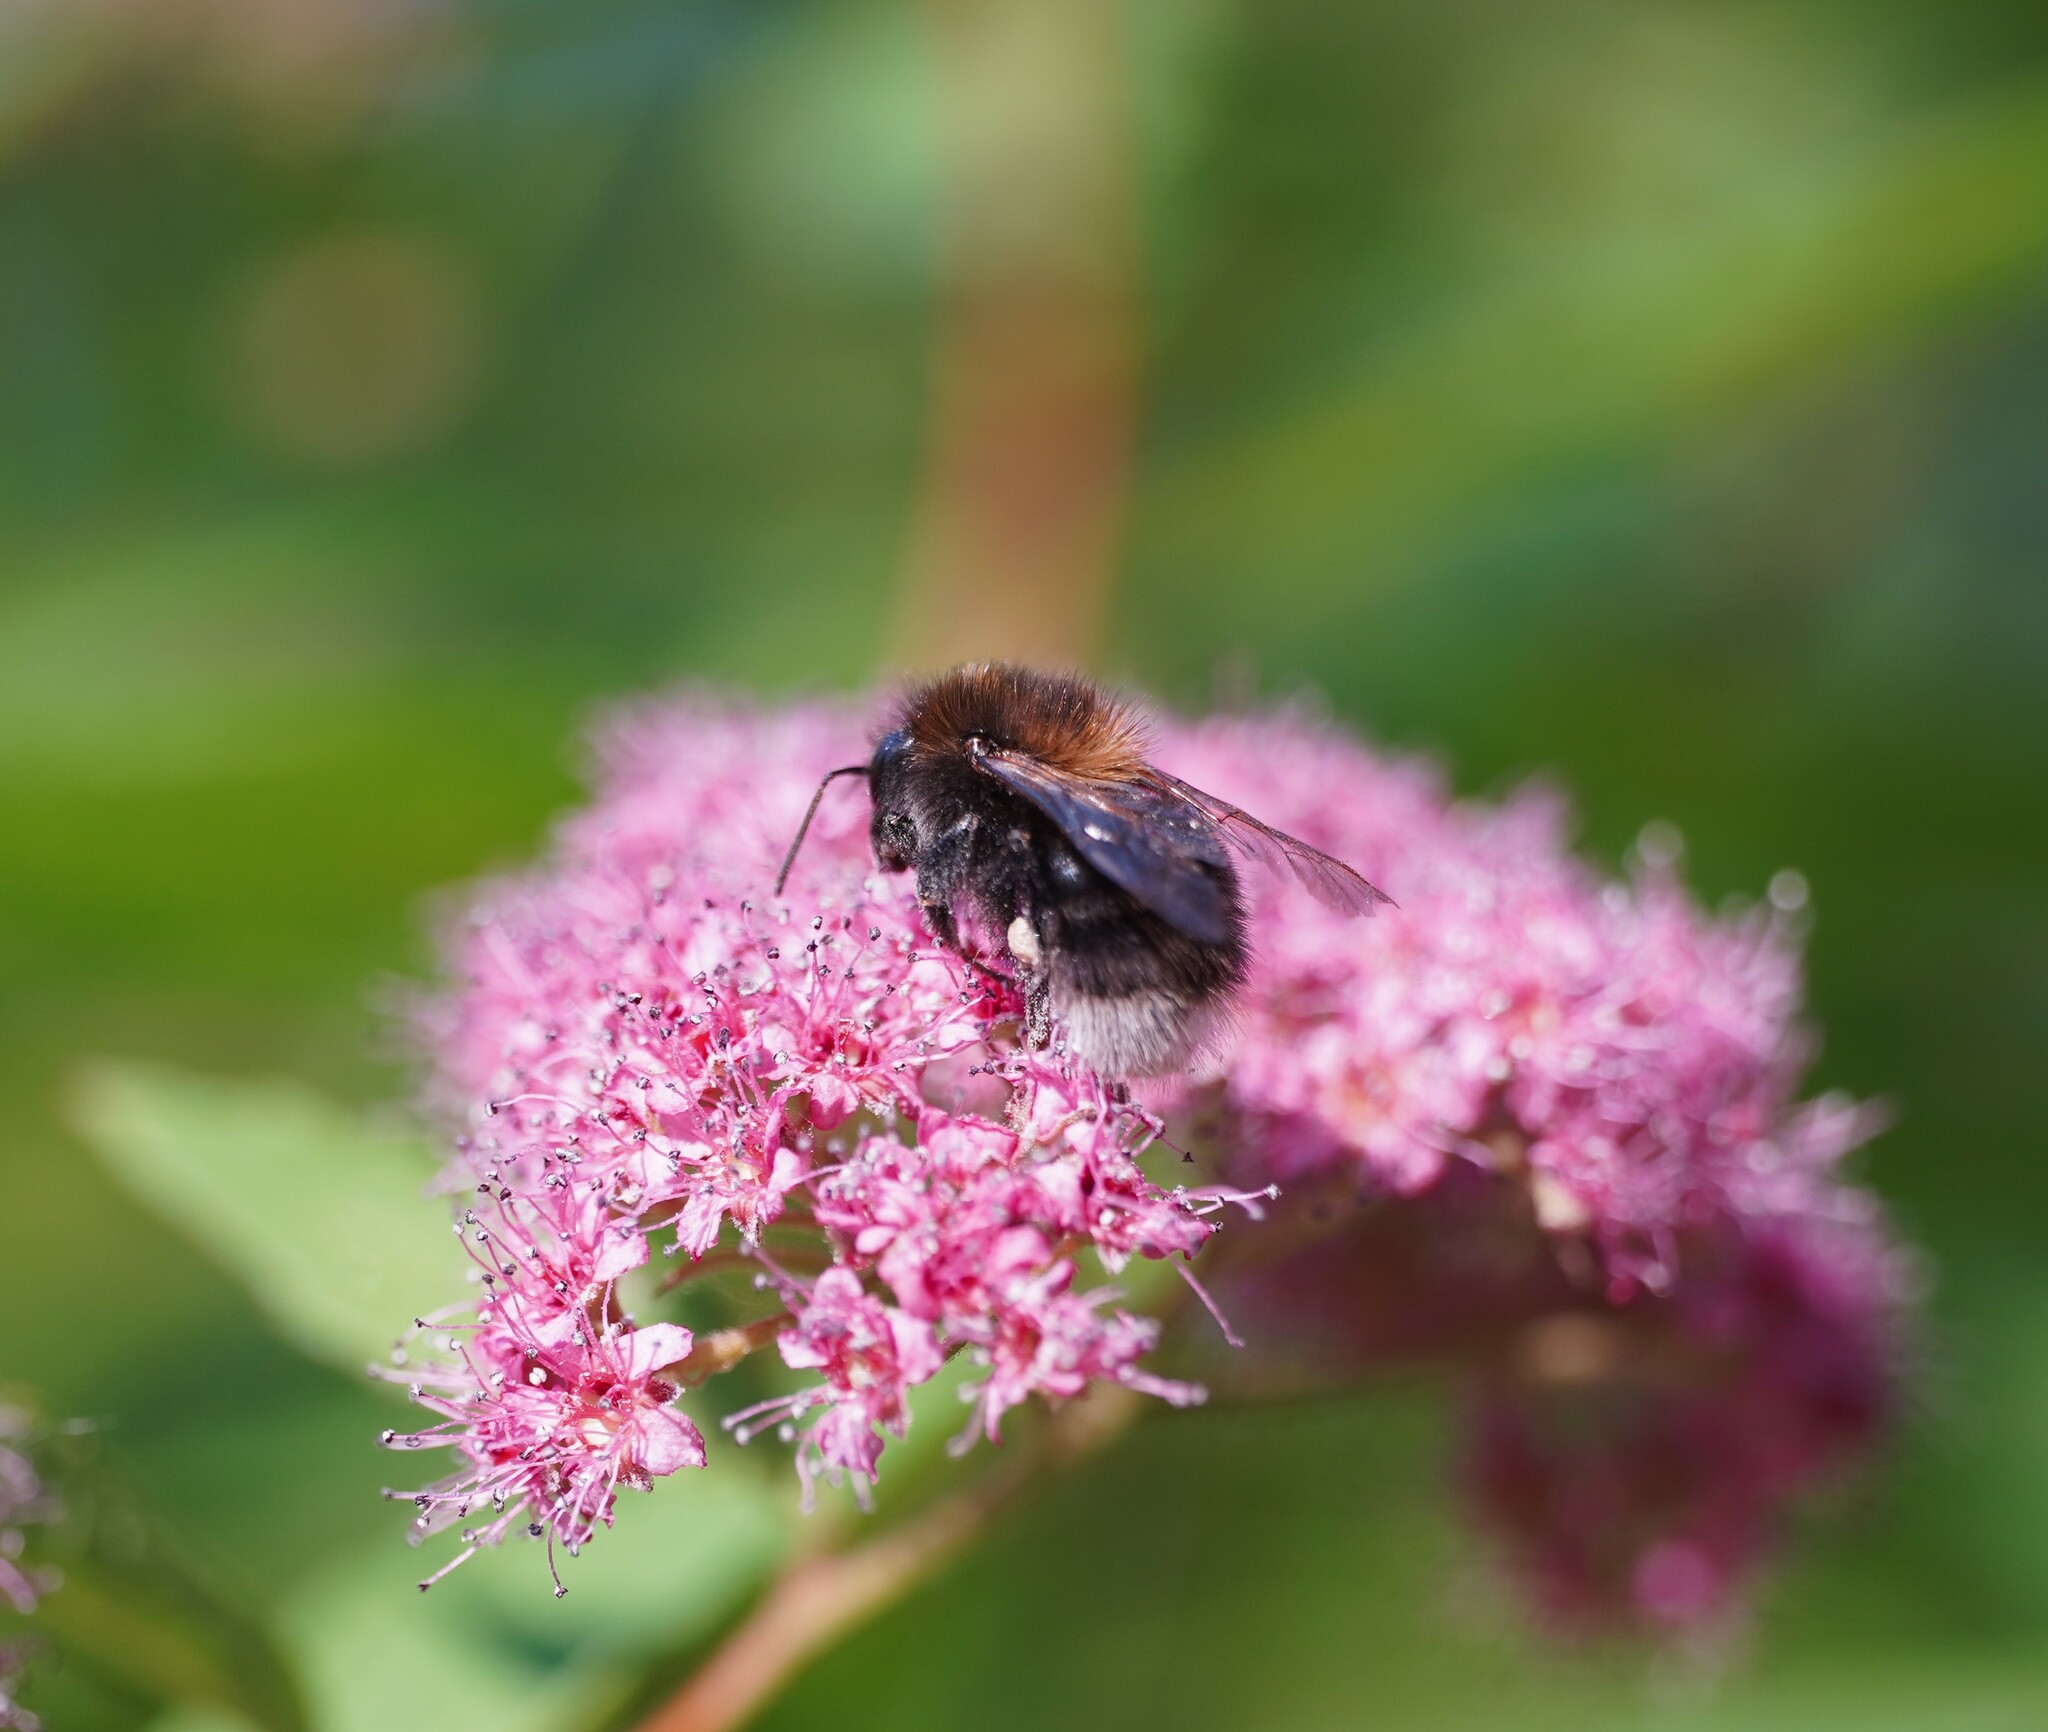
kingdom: Animalia
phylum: Arthropoda
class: Insecta
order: Hymenoptera
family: Apidae
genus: Bombus
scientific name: Bombus hypnorum
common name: New garden bumblebee
